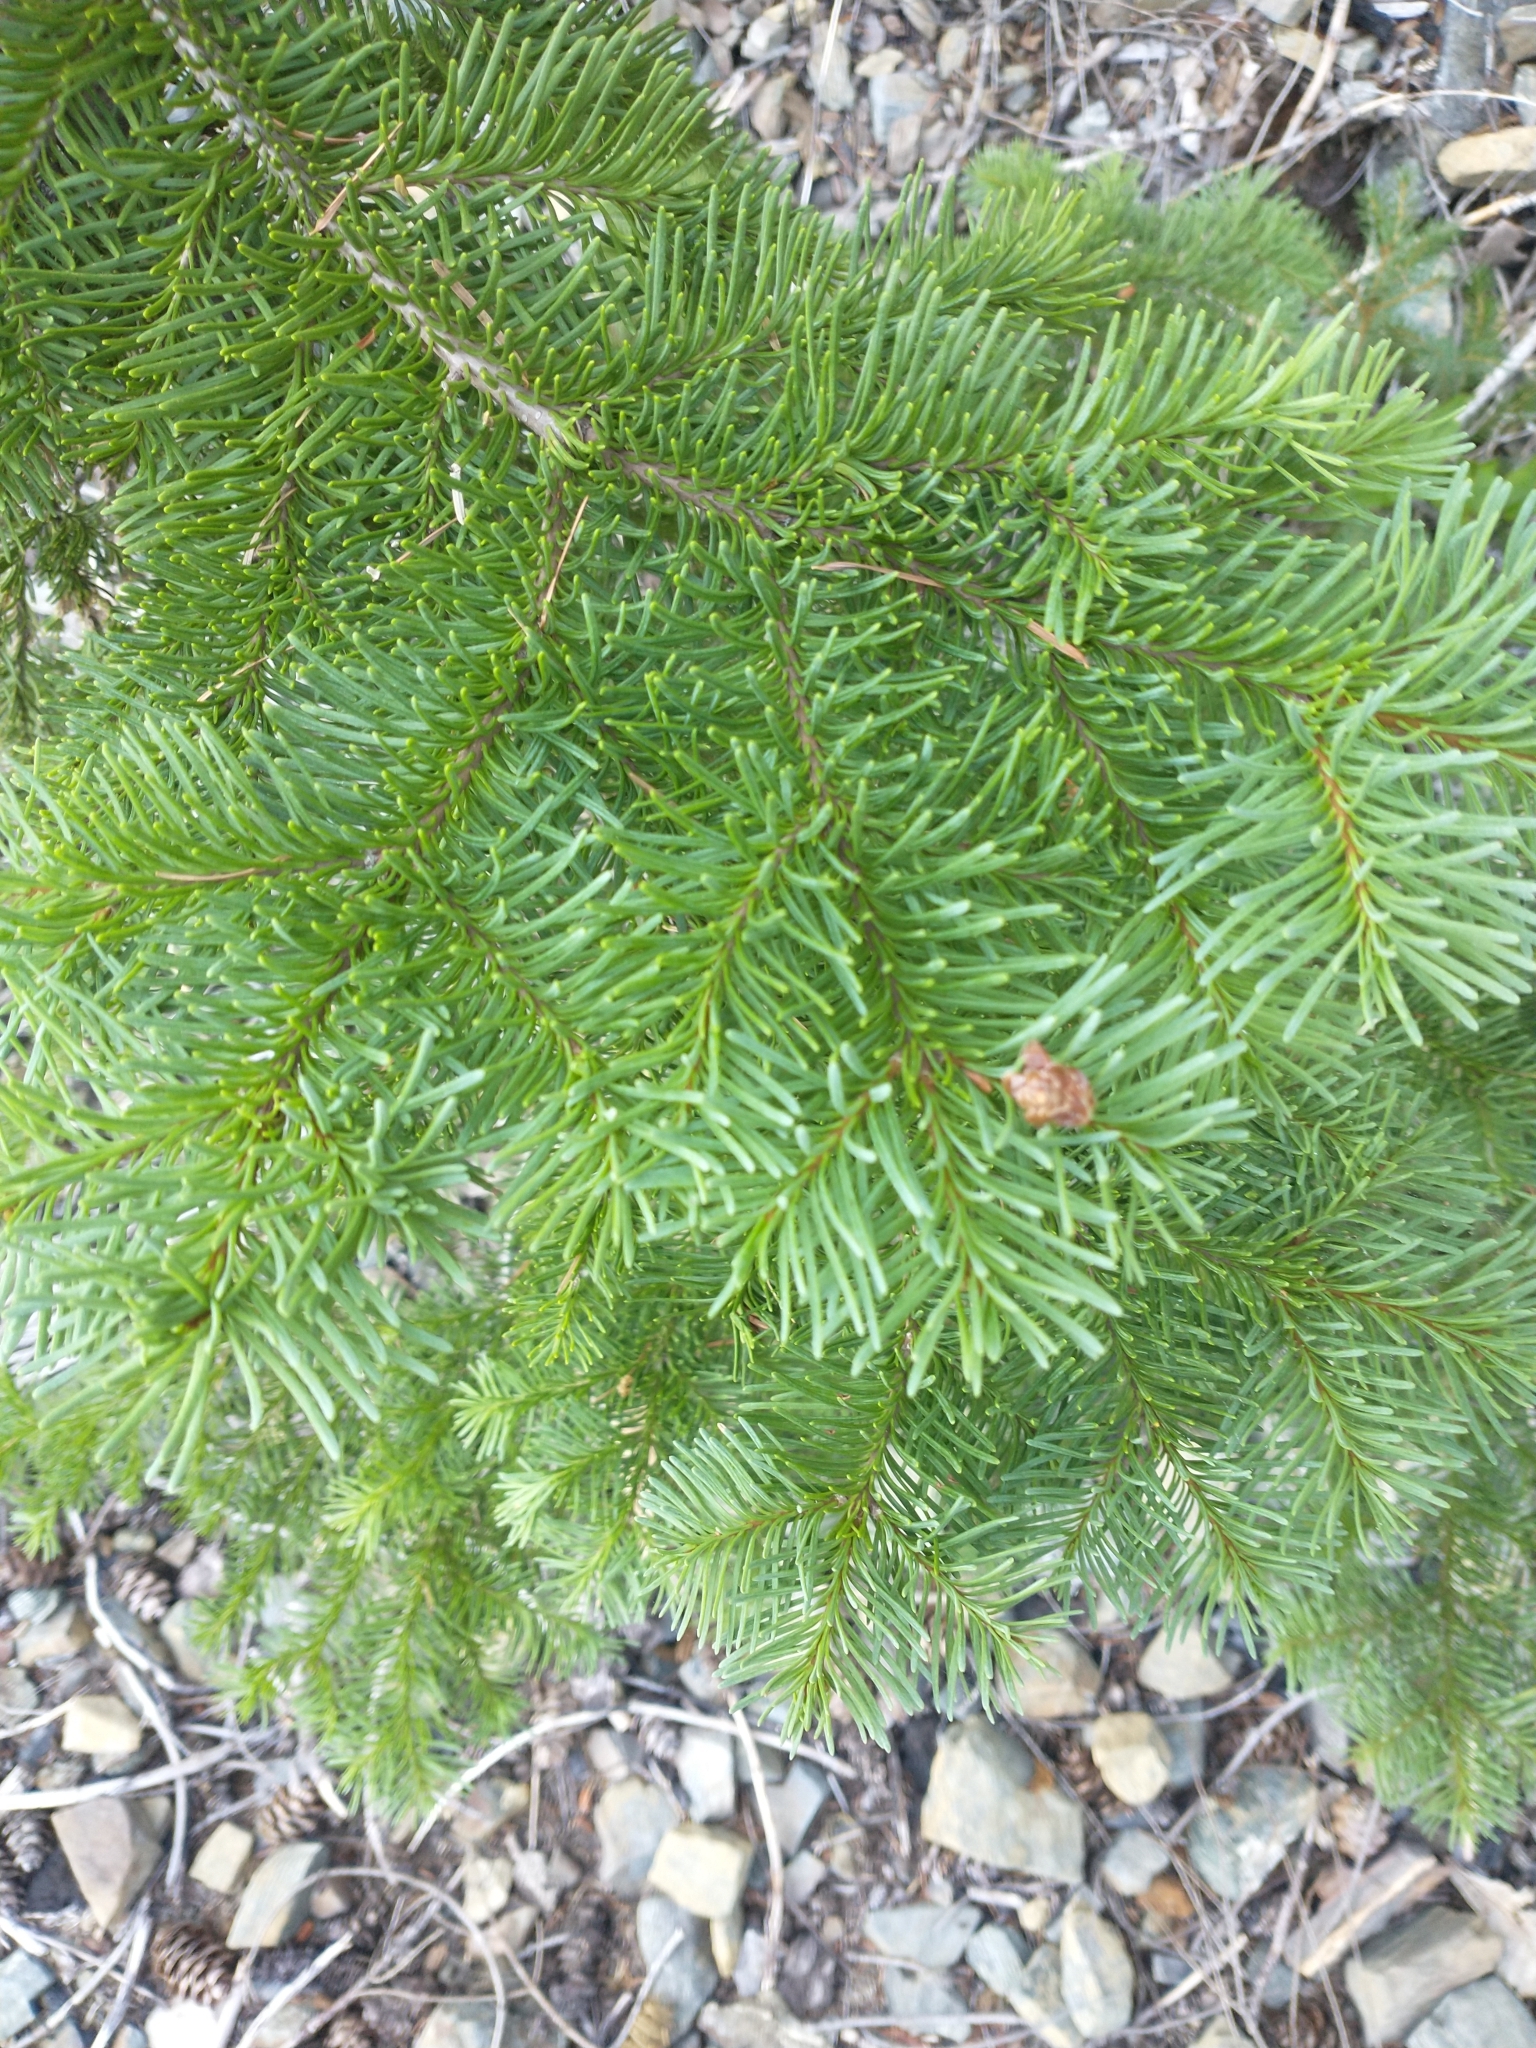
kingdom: Plantae
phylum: Tracheophyta
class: Pinopsida
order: Pinales
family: Pinaceae
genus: Abies
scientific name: Abies magnifica bis
